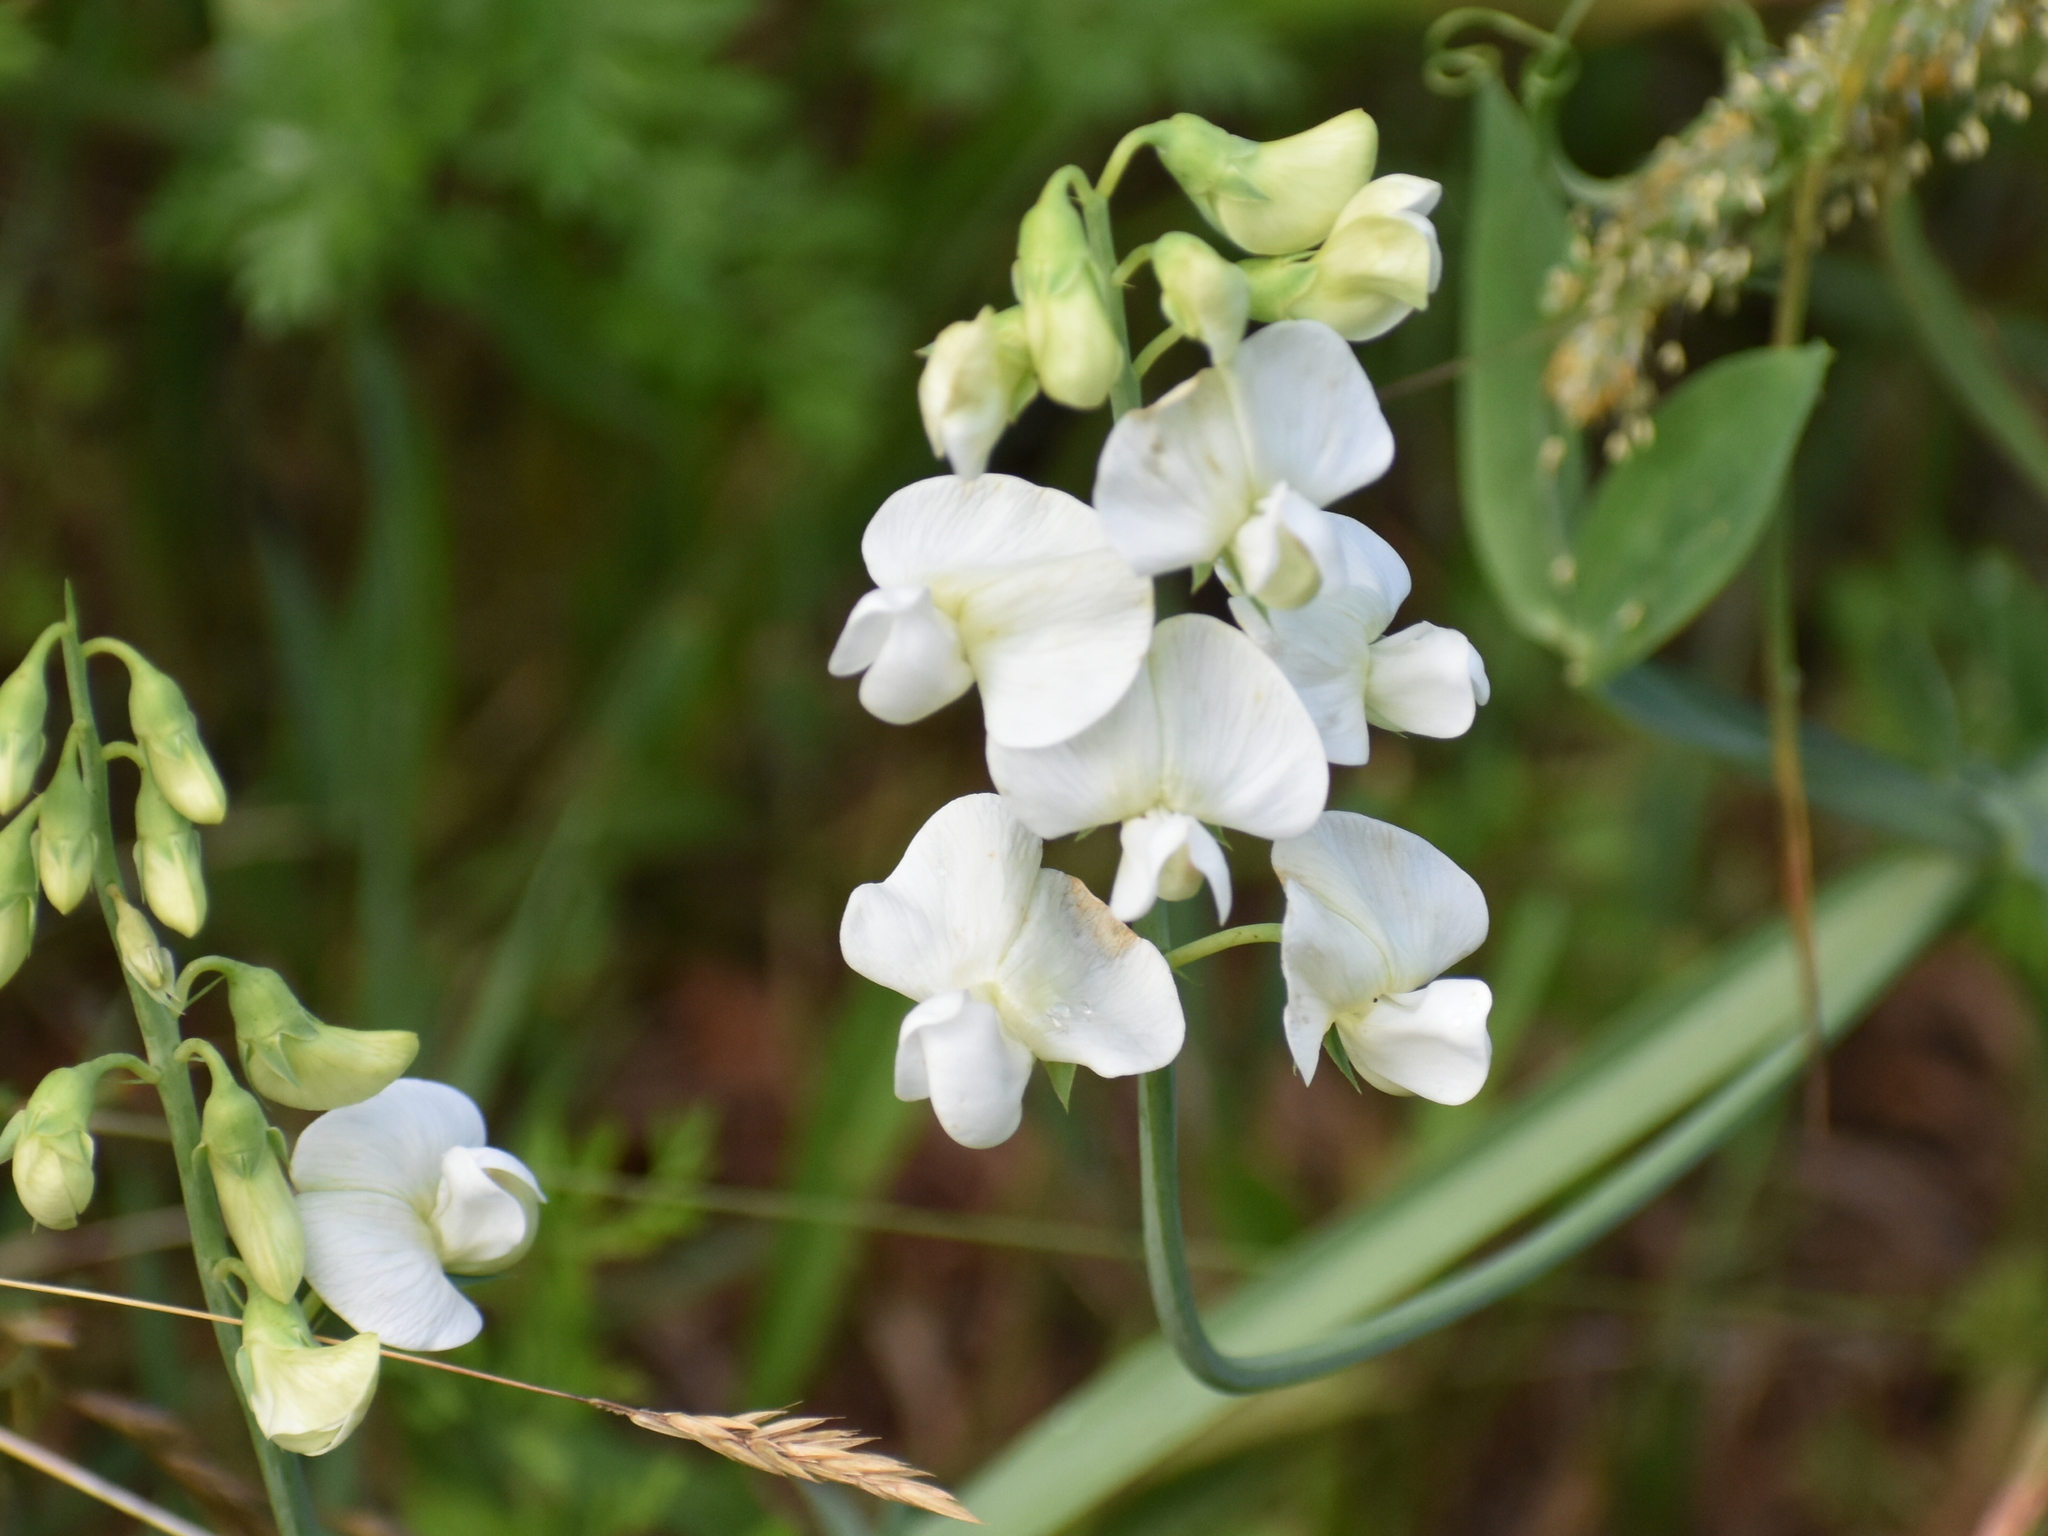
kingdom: Plantae
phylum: Tracheophyta
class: Magnoliopsida
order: Fabales
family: Fabaceae
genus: Lathyrus
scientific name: Lathyrus latifolius
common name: Perennial pea
